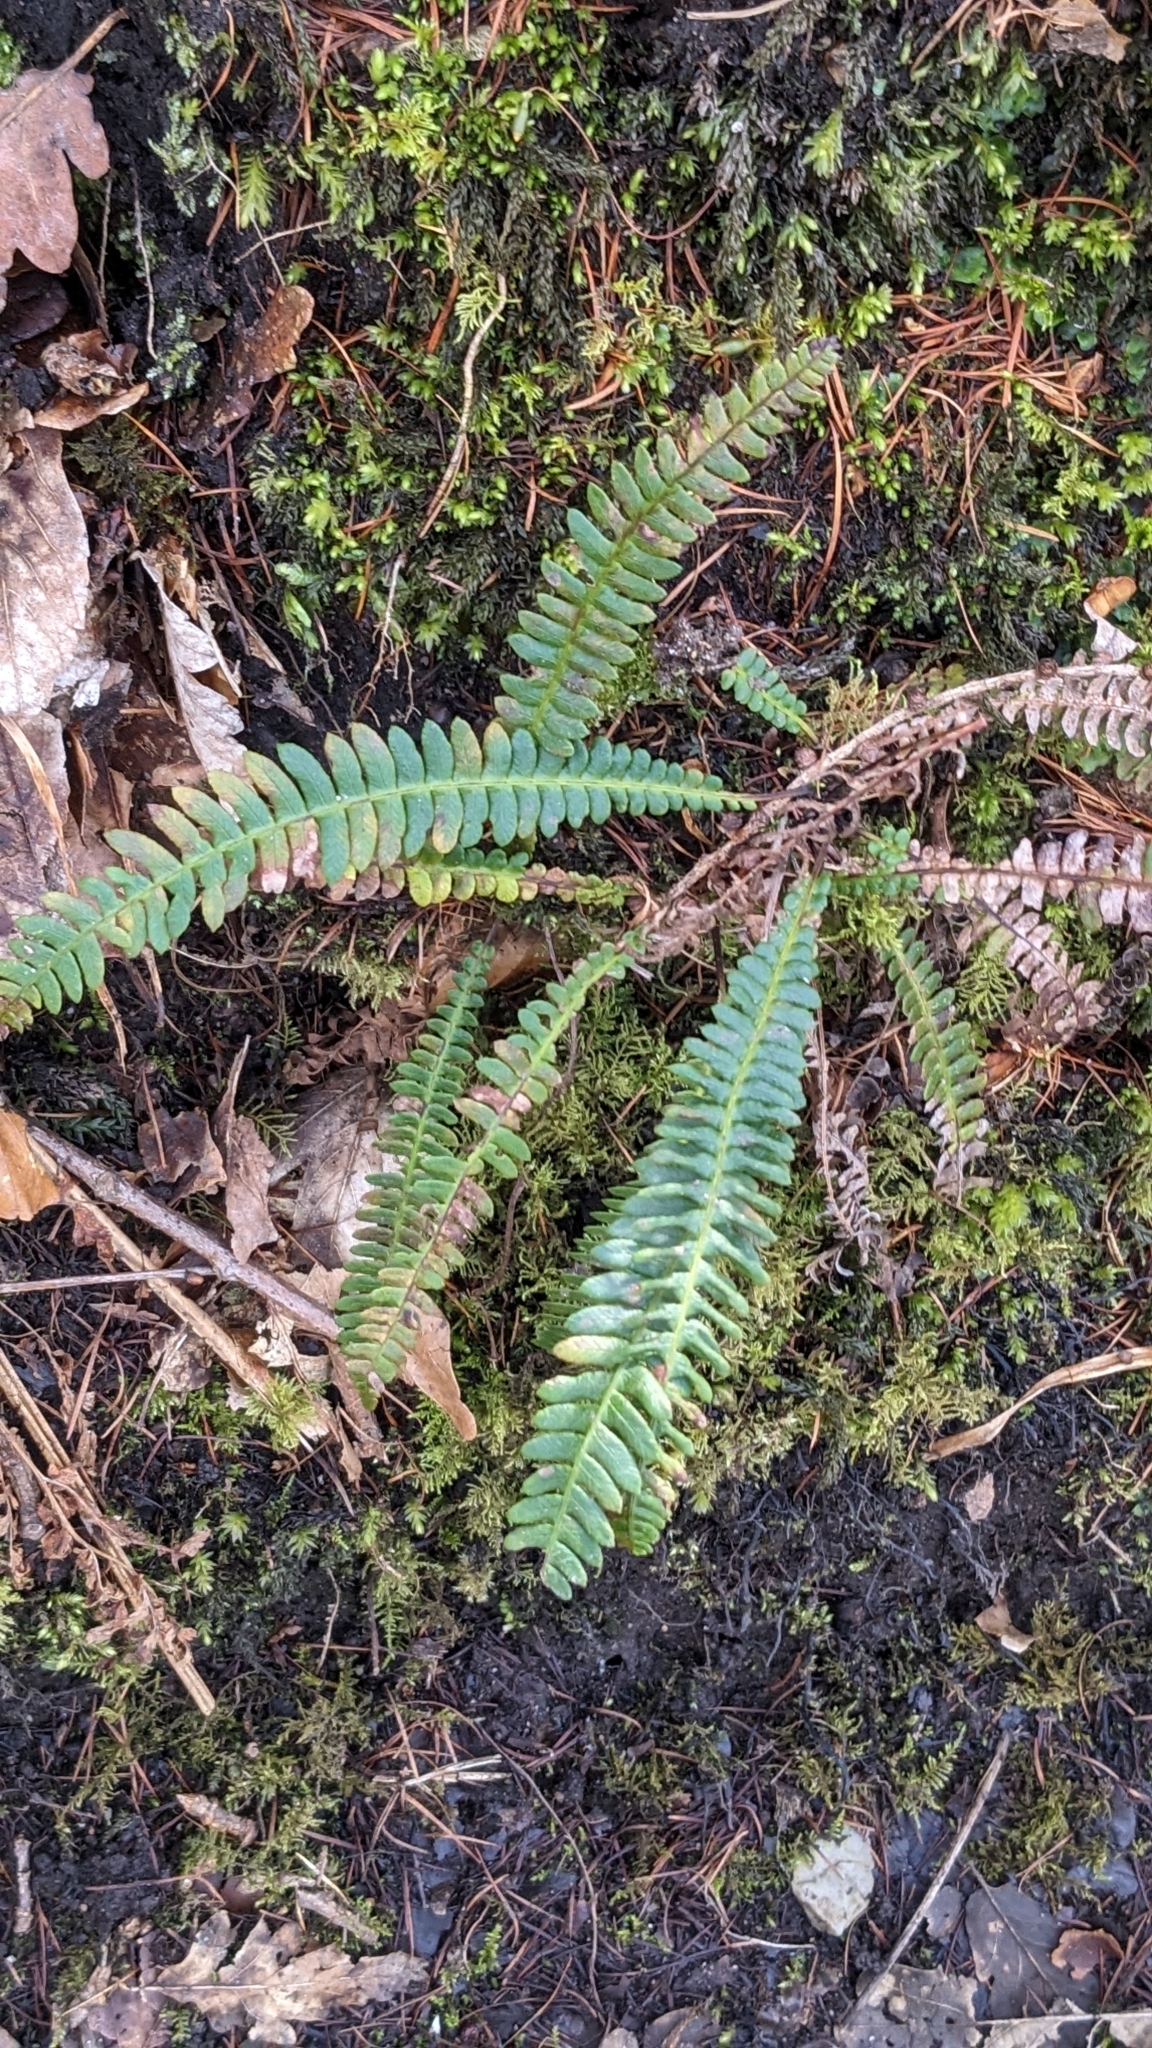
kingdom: Plantae
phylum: Tracheophyta
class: Polypodiopsida
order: Polypodiales
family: Blechnaceae
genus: Struthiopteris
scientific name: Struthiopteris spicant
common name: Deer fern
